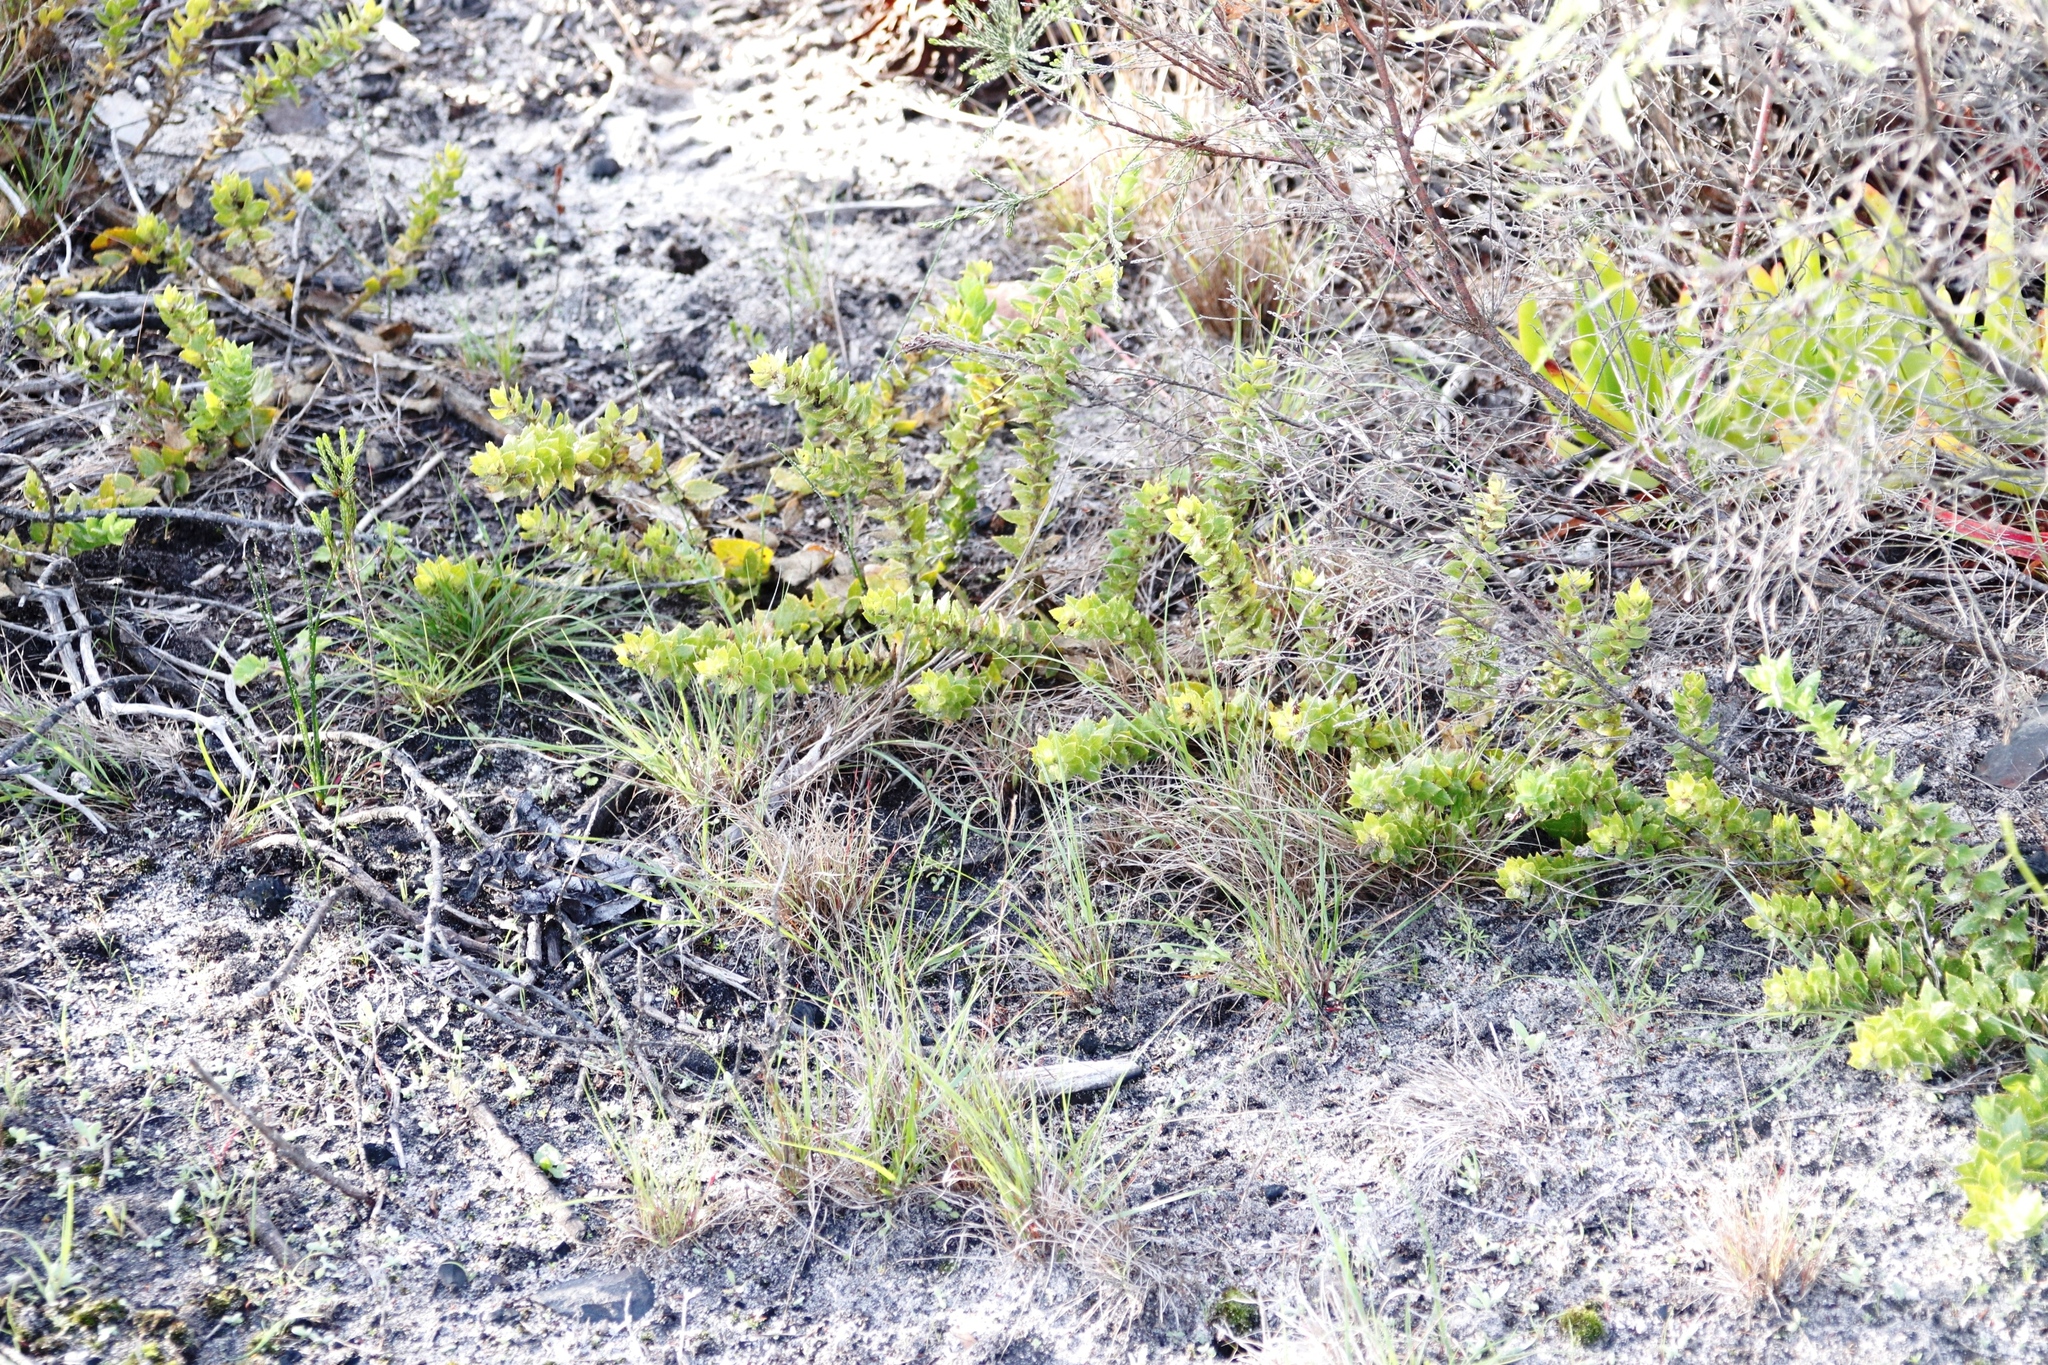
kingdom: Plantae
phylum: Tracheophyta
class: Magnoliopsida
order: Lamiales
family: Scrophulariaceae
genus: Oftia
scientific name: Oftia africana
